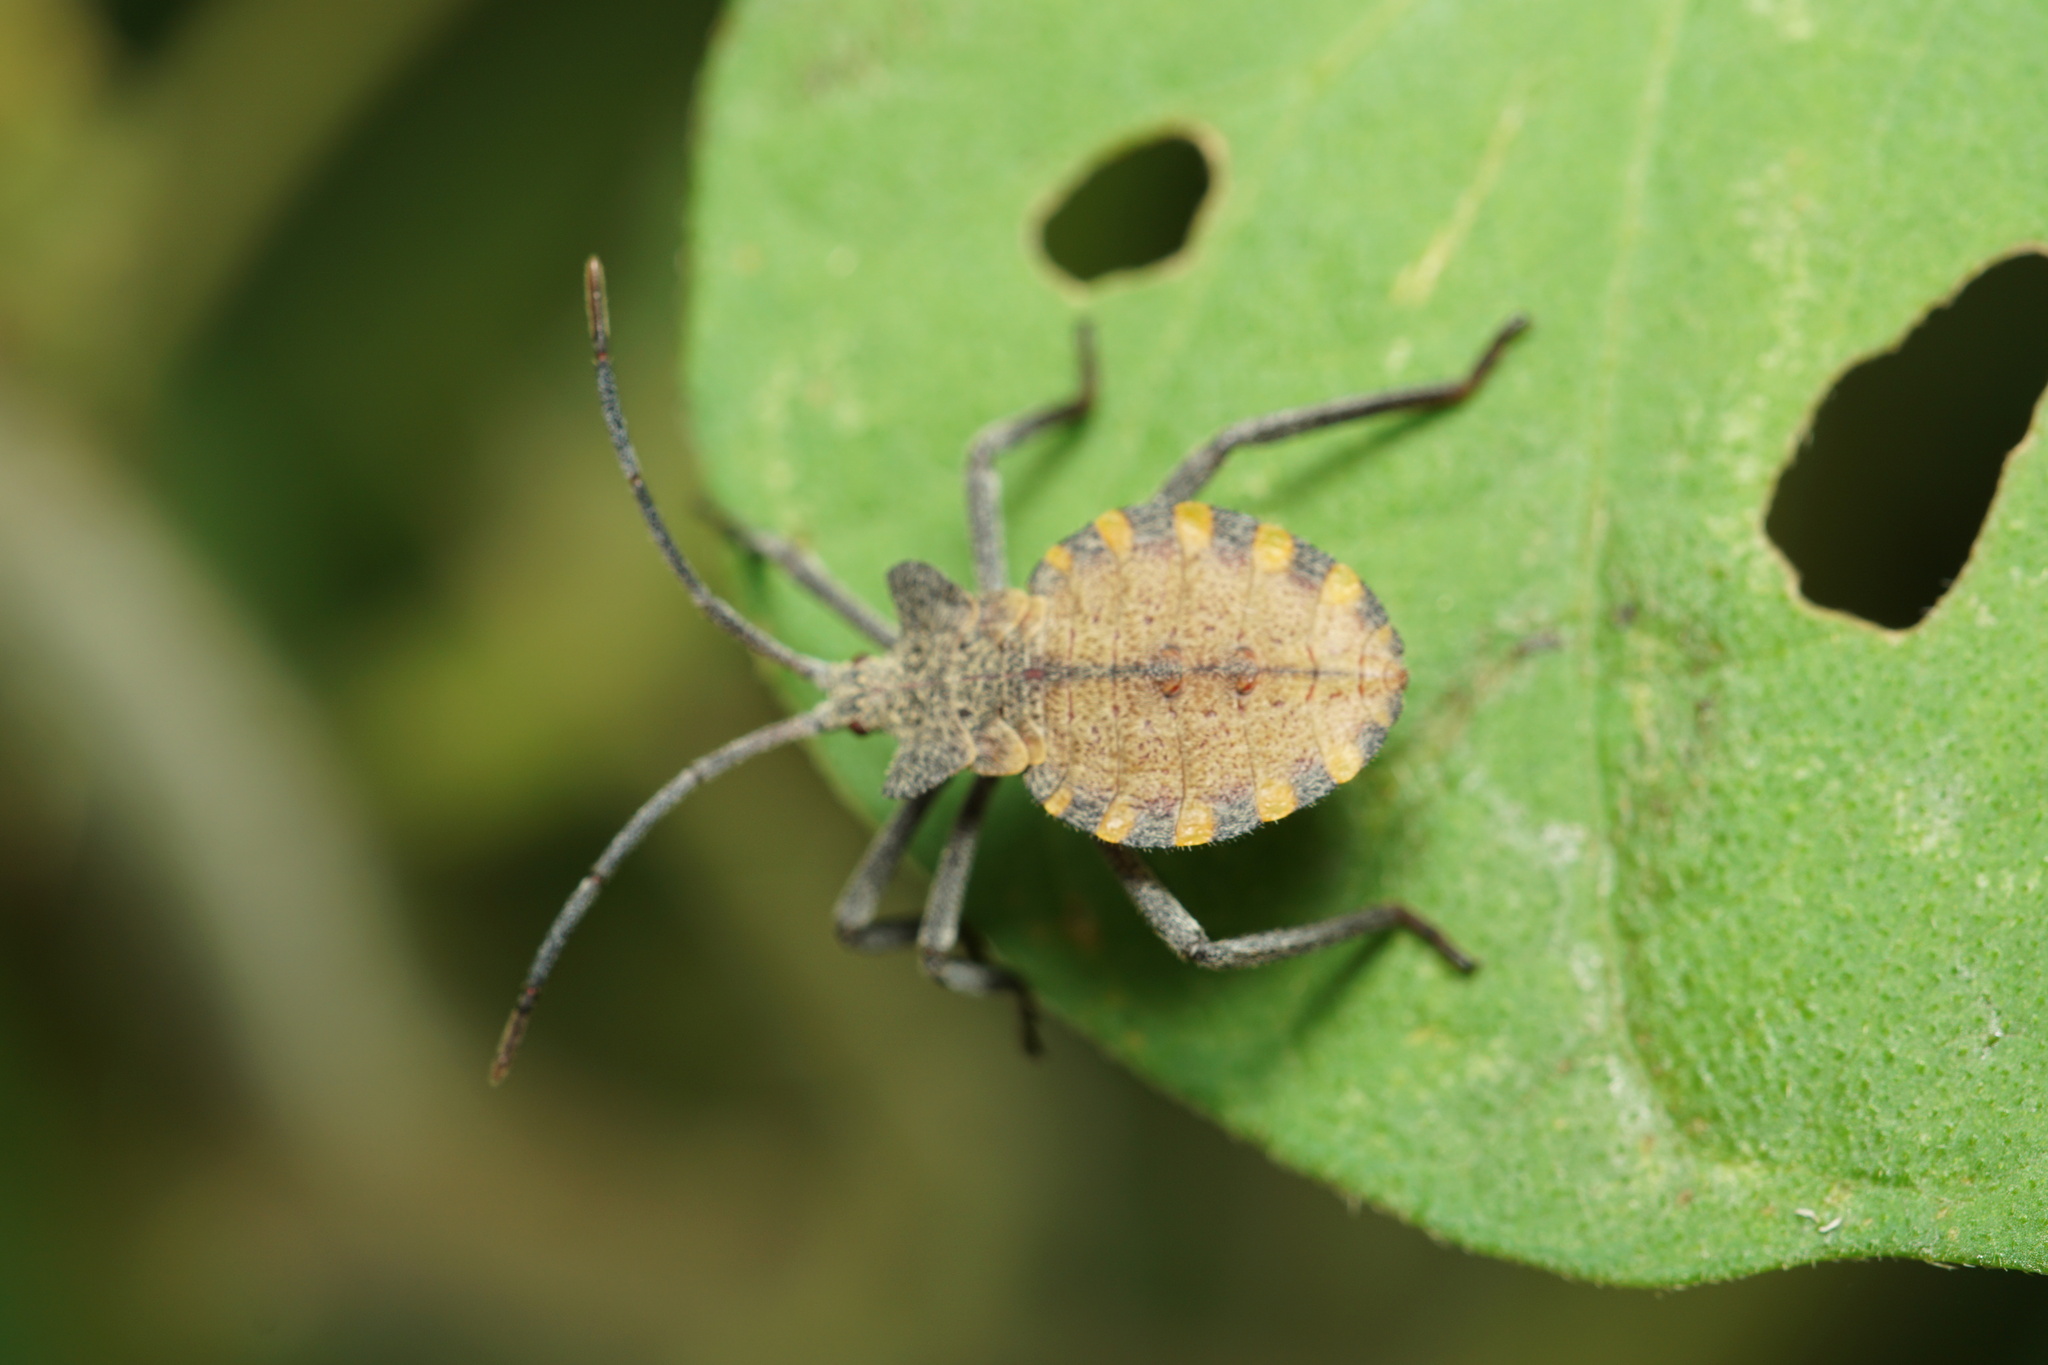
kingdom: Animalia
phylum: Arthropoda
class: Insecta
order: Hemiptera
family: Coreidae
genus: Menenotus
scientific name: Menenotus diminutus
